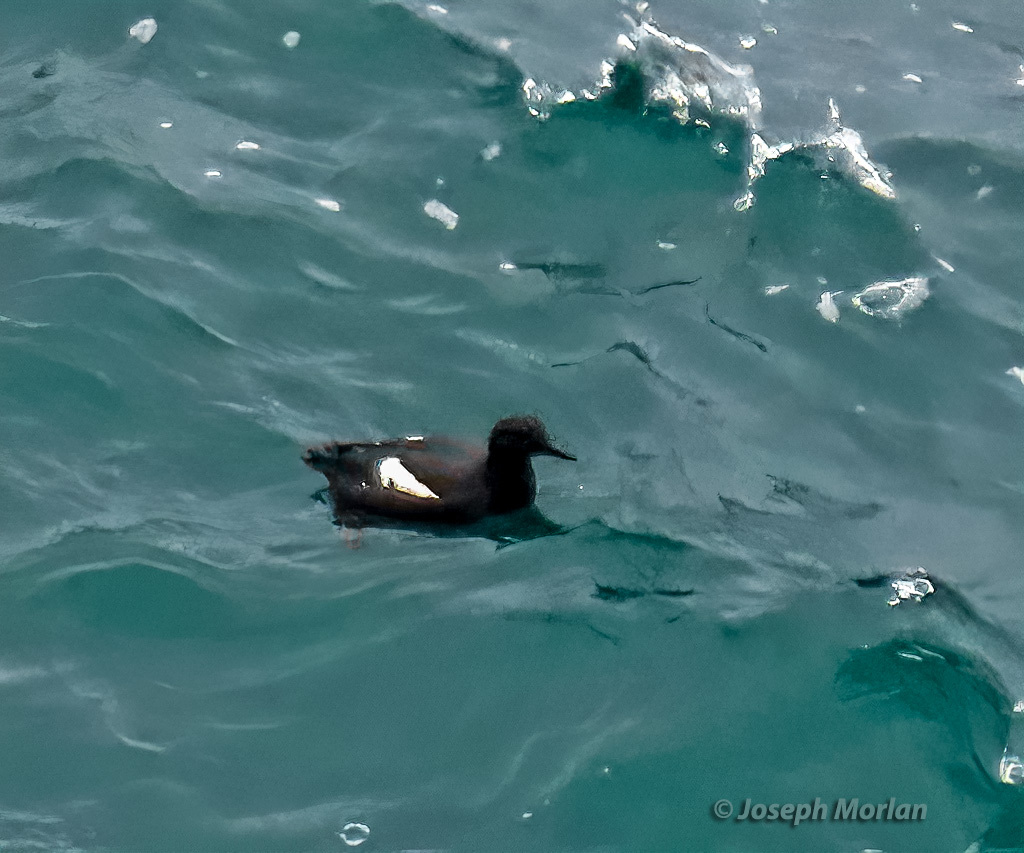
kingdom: Animalia
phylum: Chordata
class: Aves
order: Charadriiformes
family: Alcidae
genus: Cepphus
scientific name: Cepphus columba
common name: Pigeon guillemot
